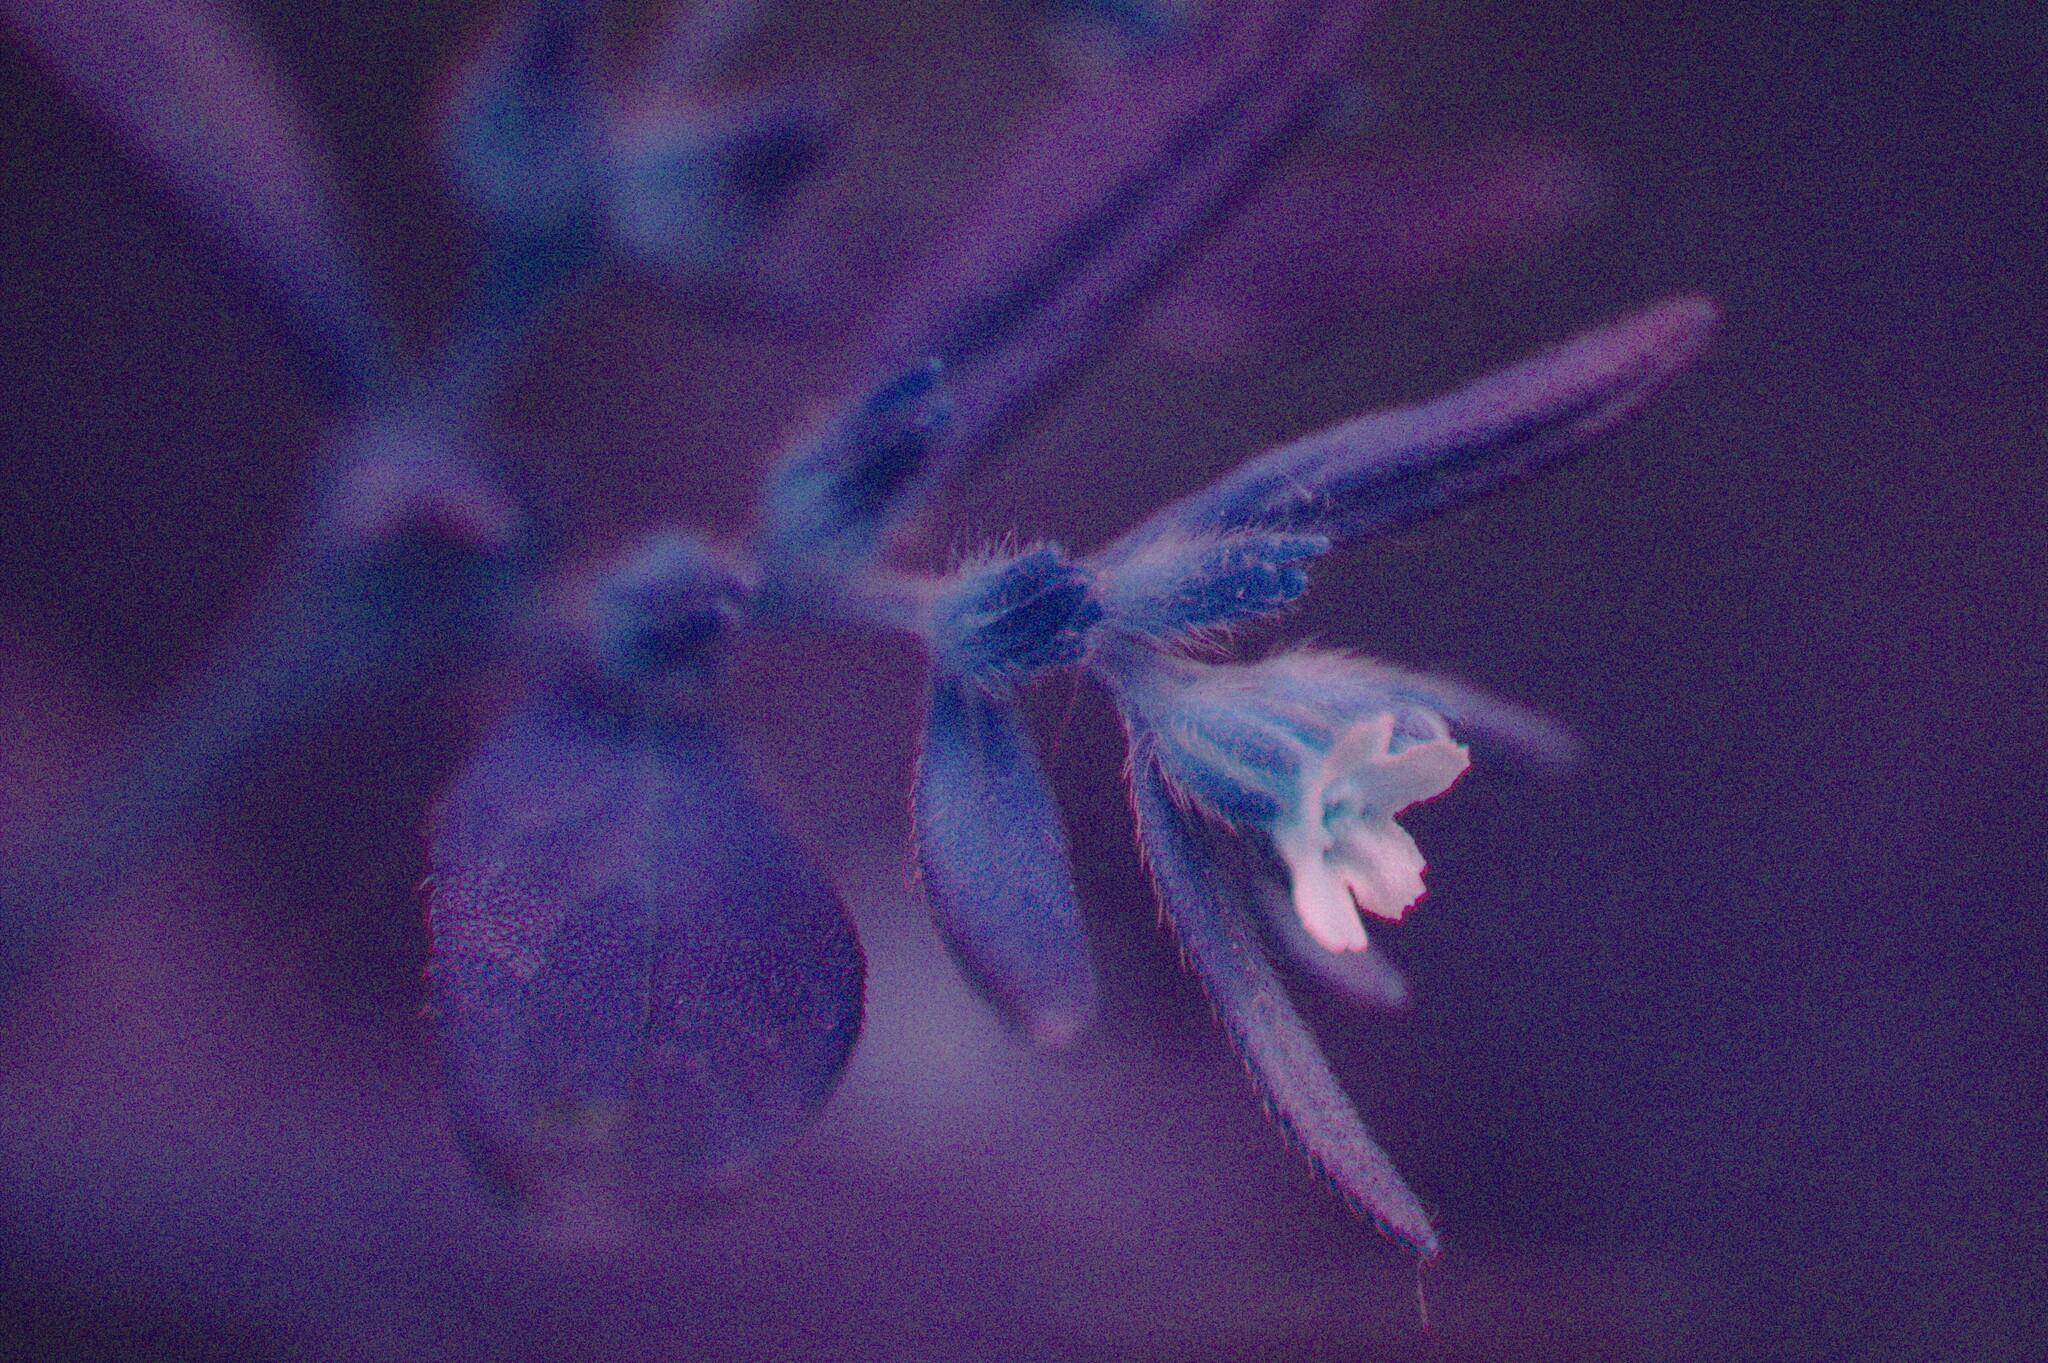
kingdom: Plantae
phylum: Tracheophyta
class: Magnoliopsida
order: Boraginales
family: Boraginaceae
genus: Lithospermum
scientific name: Lithospermum officinale
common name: Common gromwell
